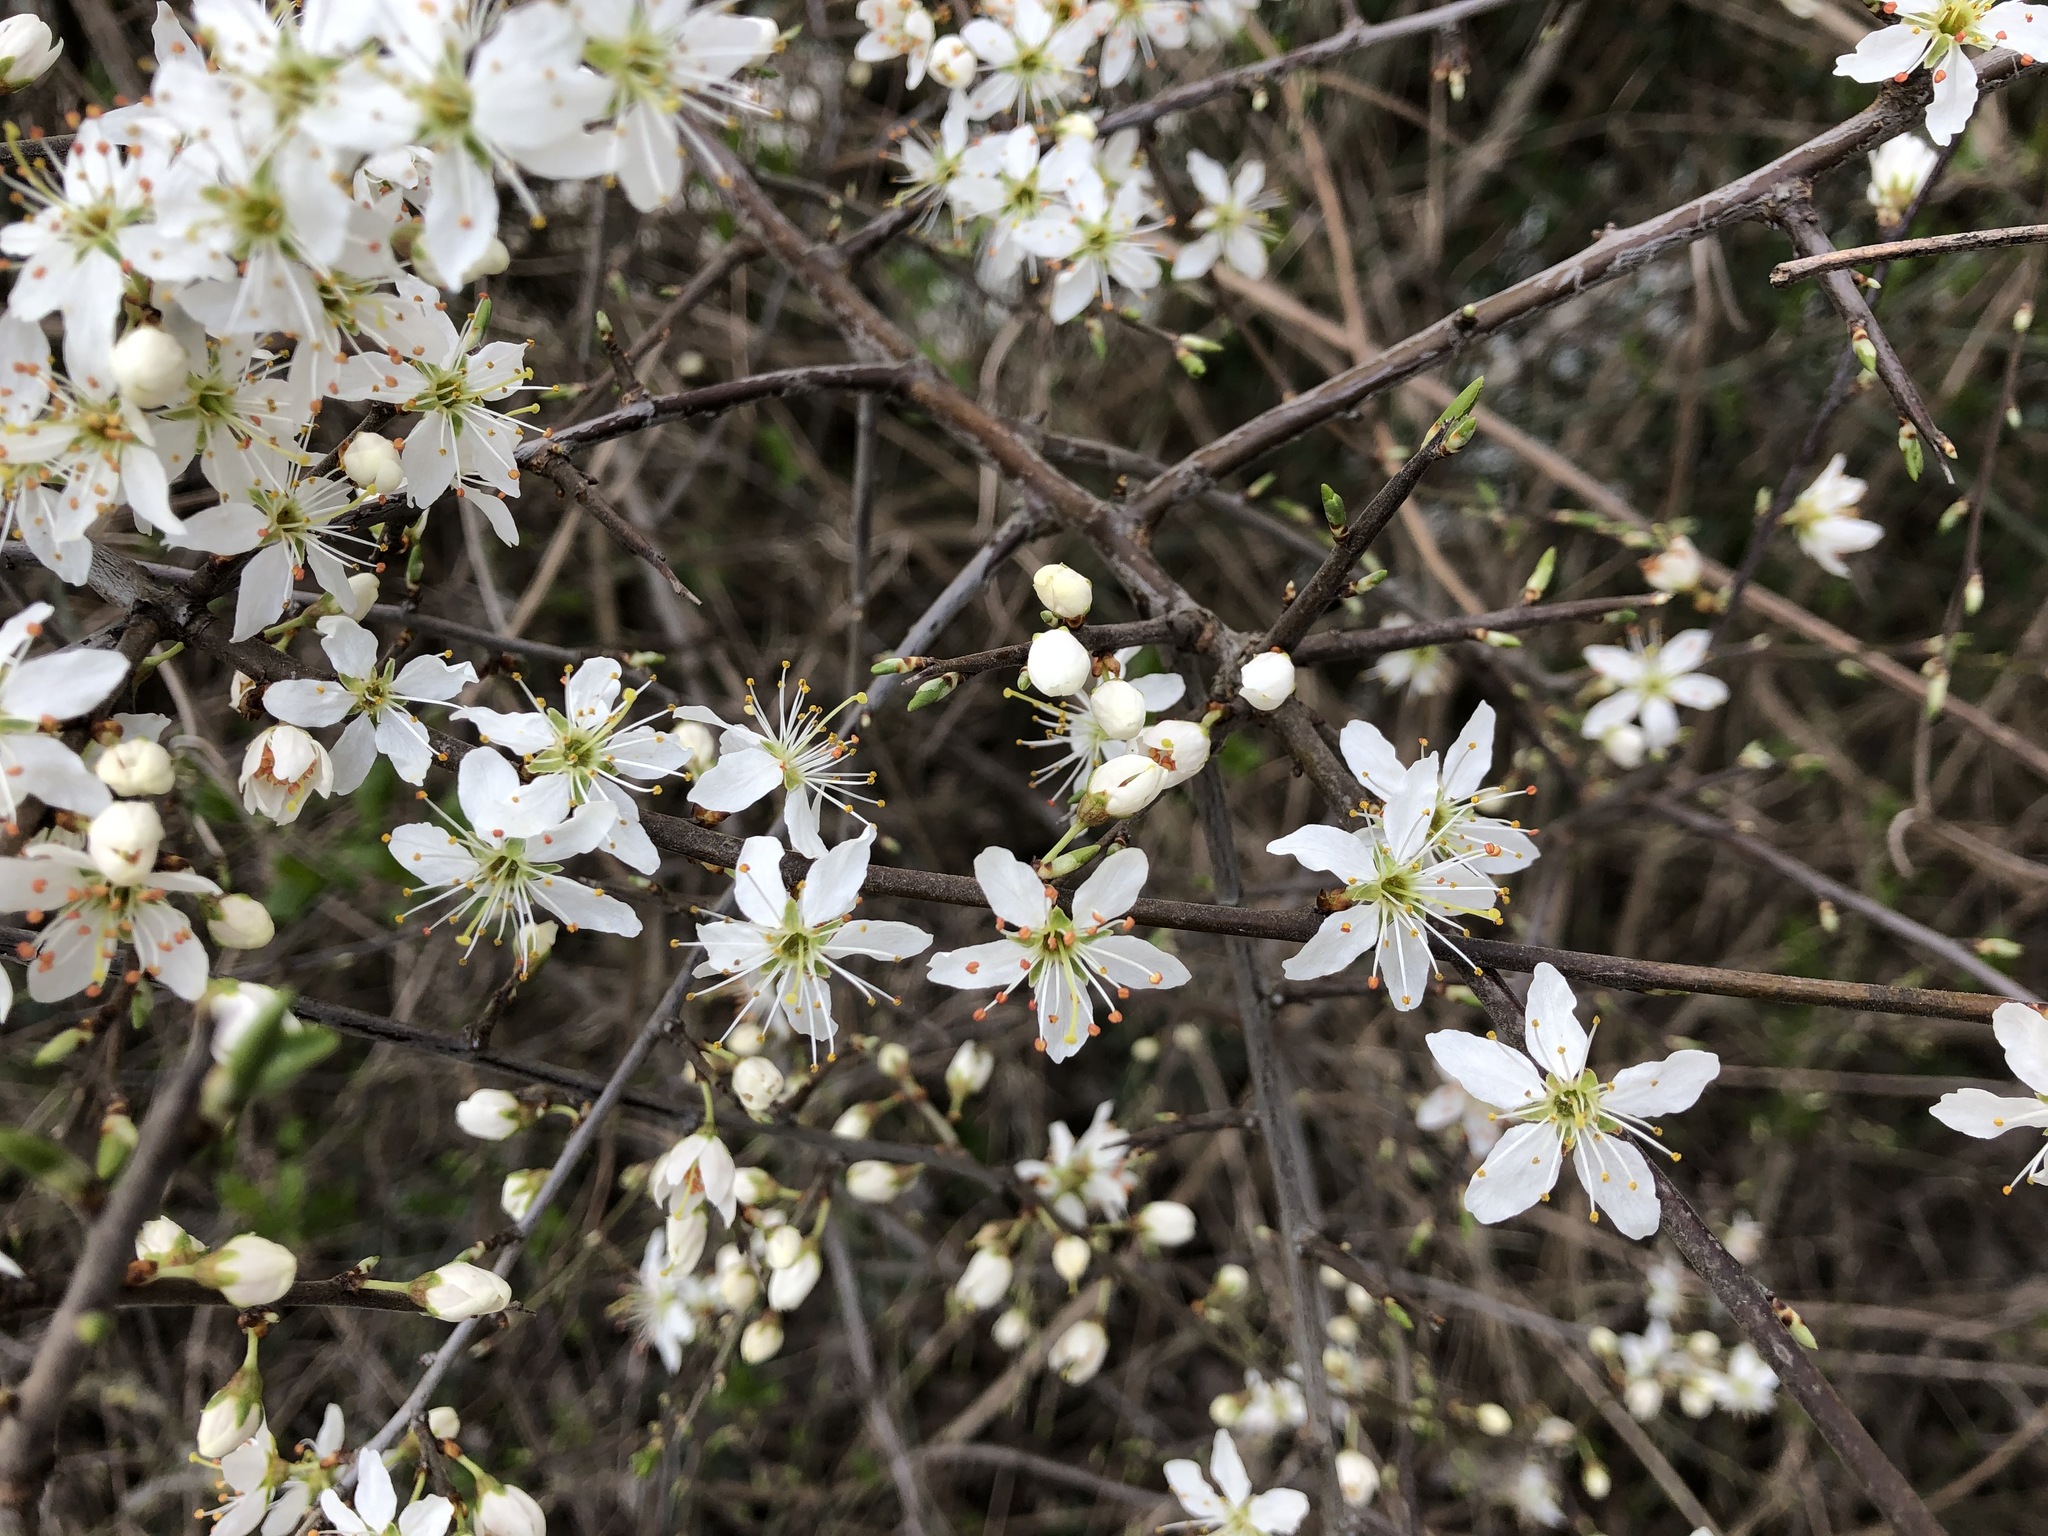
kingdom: Plantae
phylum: Tracheophyta
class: Magnoliopsida
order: Rosales
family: Rosaceae
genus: Prunus
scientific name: Prunus spinosa
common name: Blackthorn
